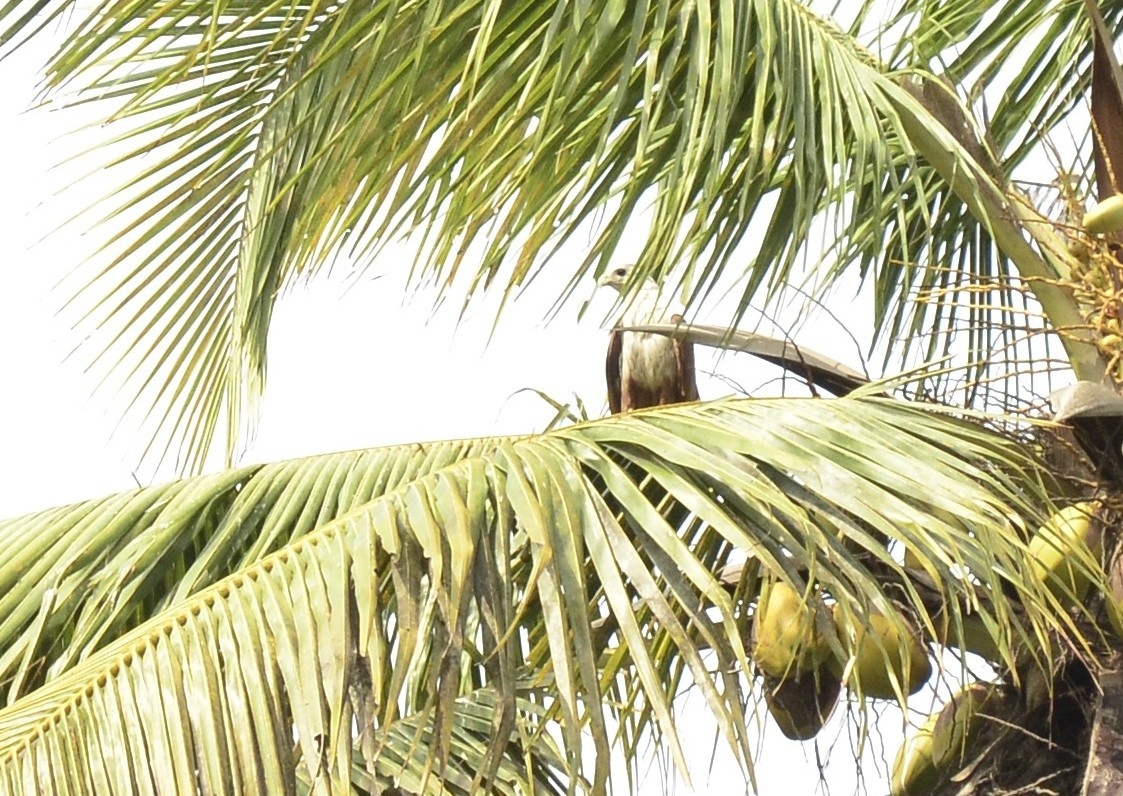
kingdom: Animalia
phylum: Chordata
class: Aves
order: Accipitriformes
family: Accipitridae
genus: Haliastur
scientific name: Haliastur indus
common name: Brahminy kite
